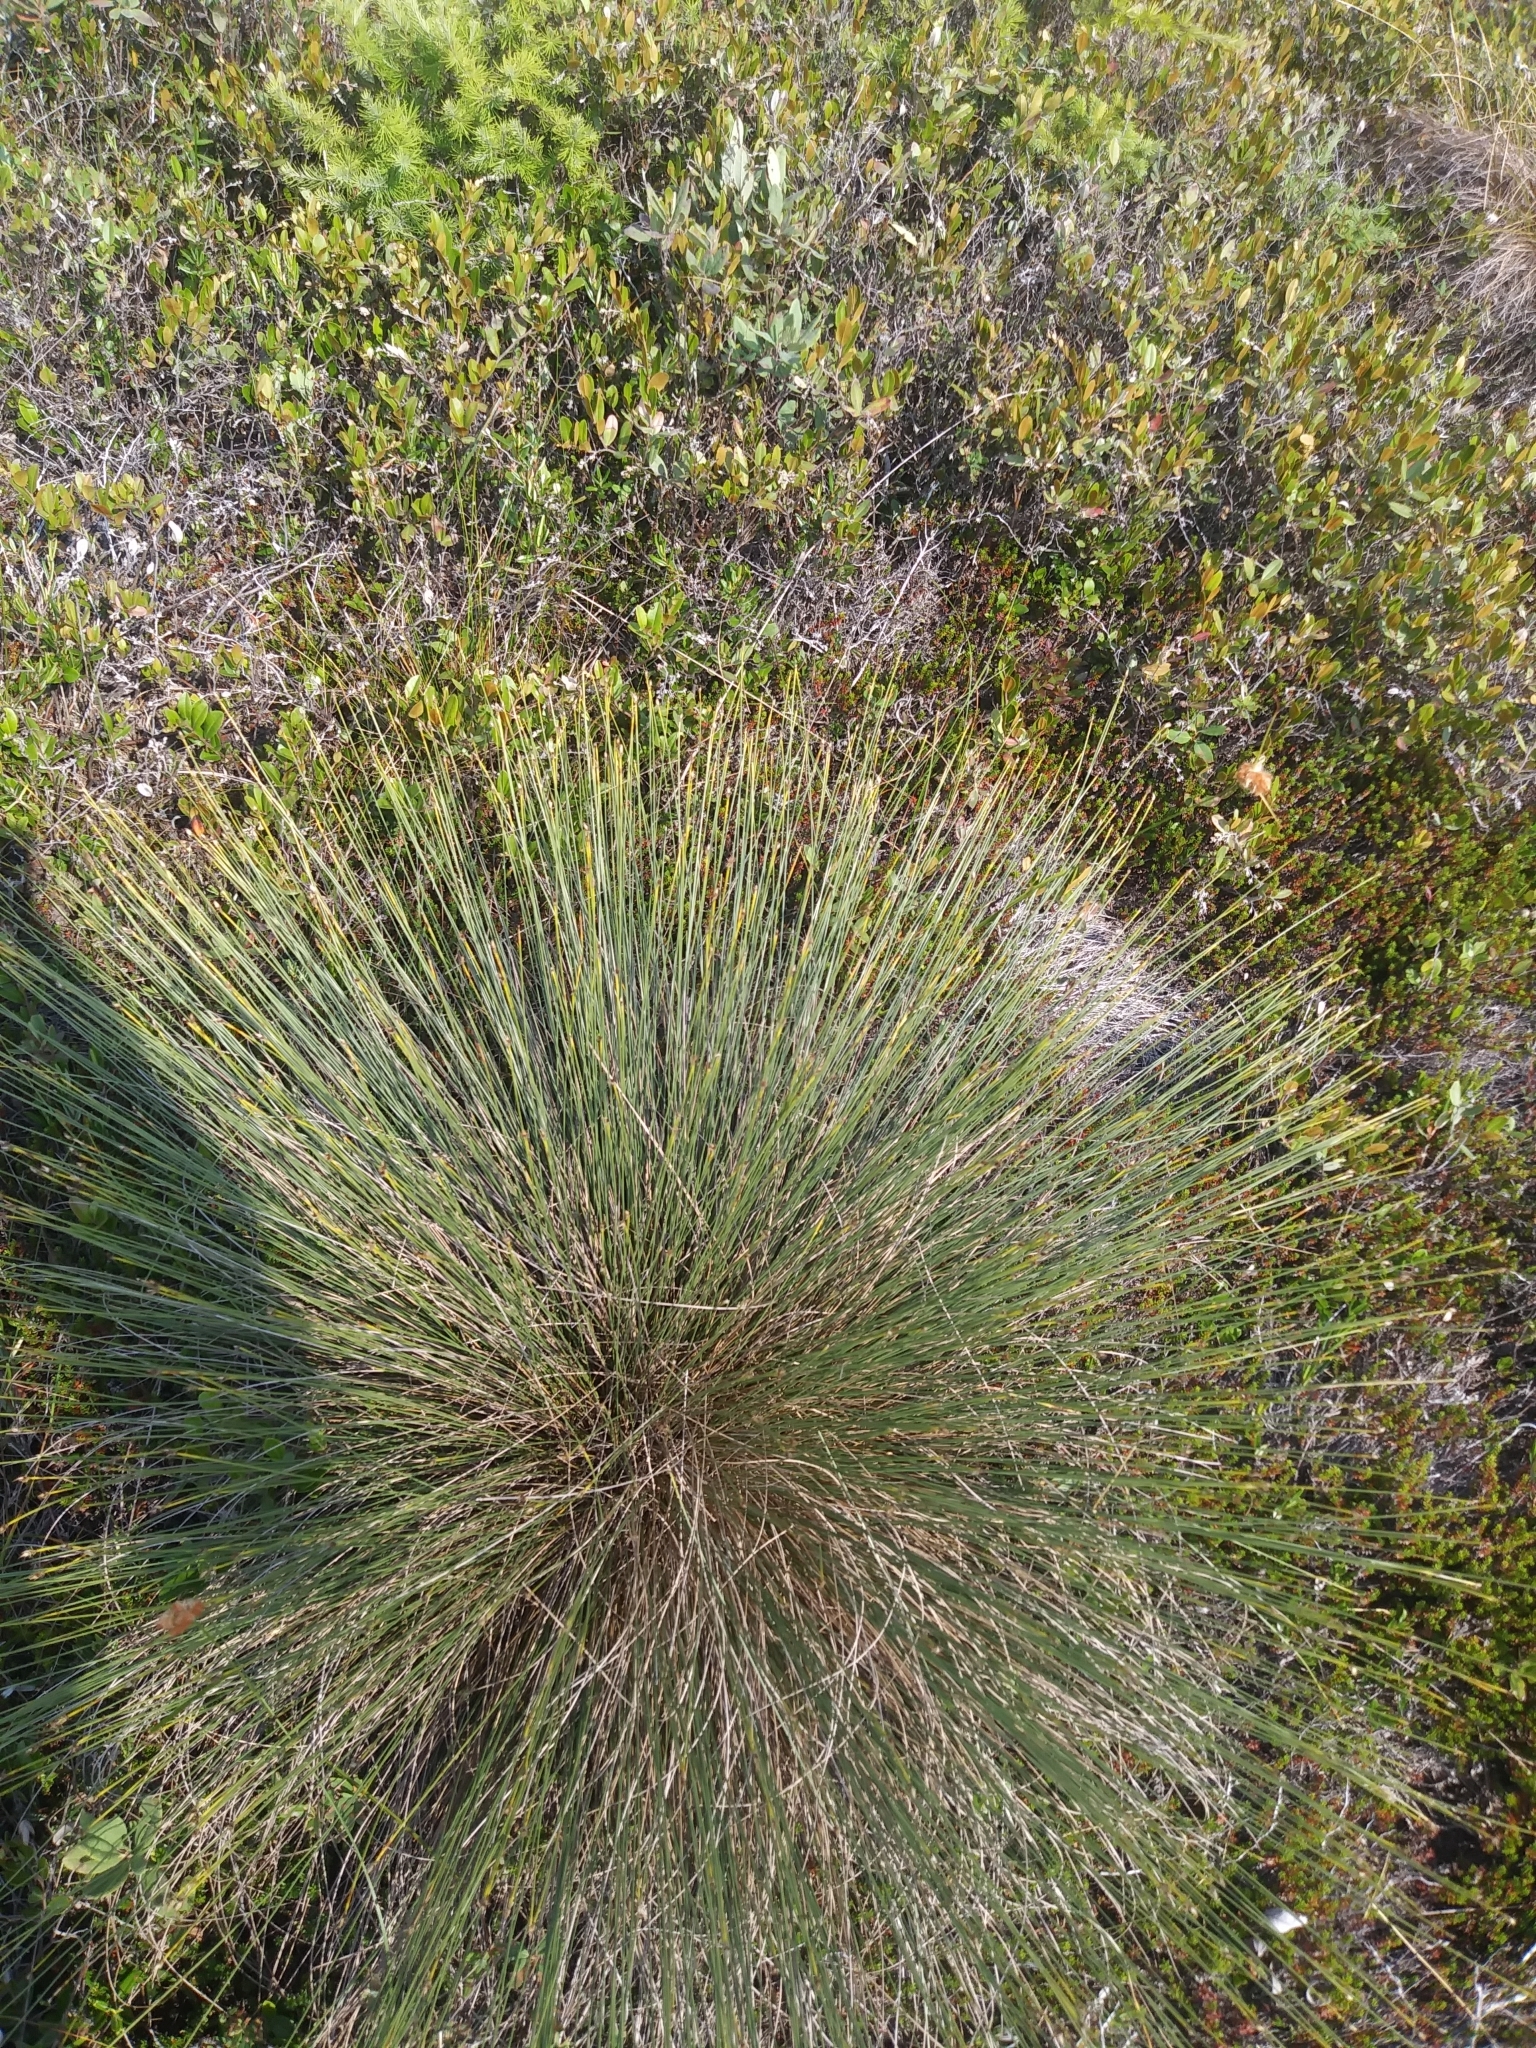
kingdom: Plantae
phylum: Tracheophyta
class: Liliopsida
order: Poales
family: Cyperaceae
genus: Trichophorum
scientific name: Trichophorum cespitosum
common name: Cespitose bulrush
